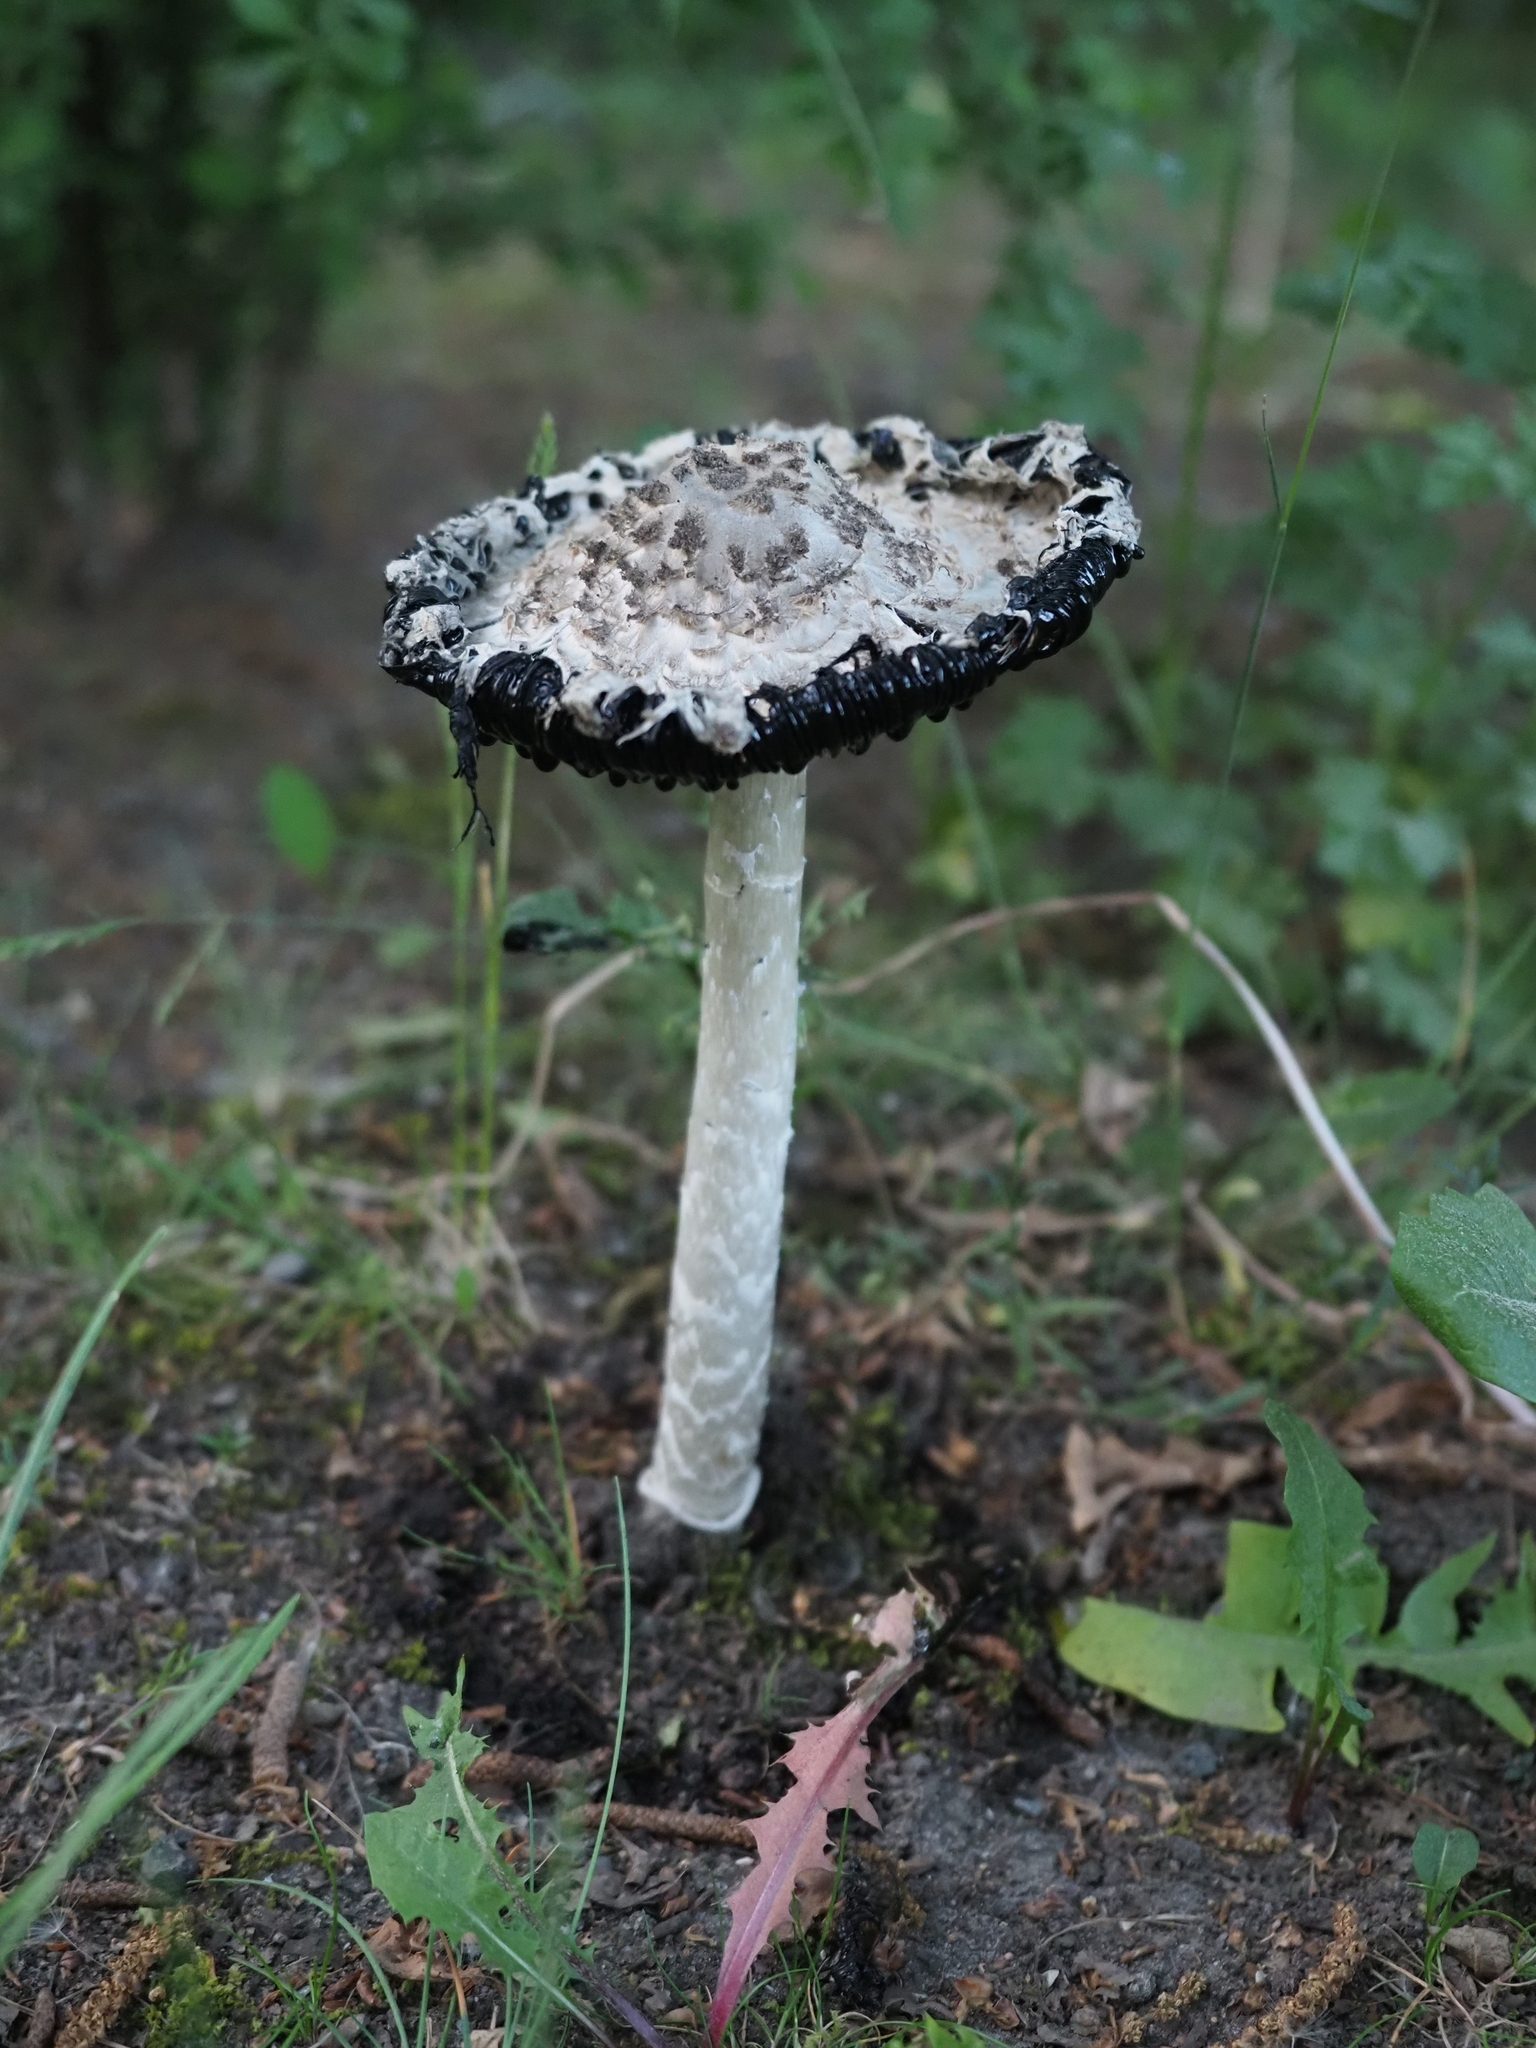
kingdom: Fungi
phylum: Basidiomycota
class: Agaricomycetes
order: Agaricales
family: Agaricaceae
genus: Coprinus
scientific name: Coprinus comatus
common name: Lawyer's wig
